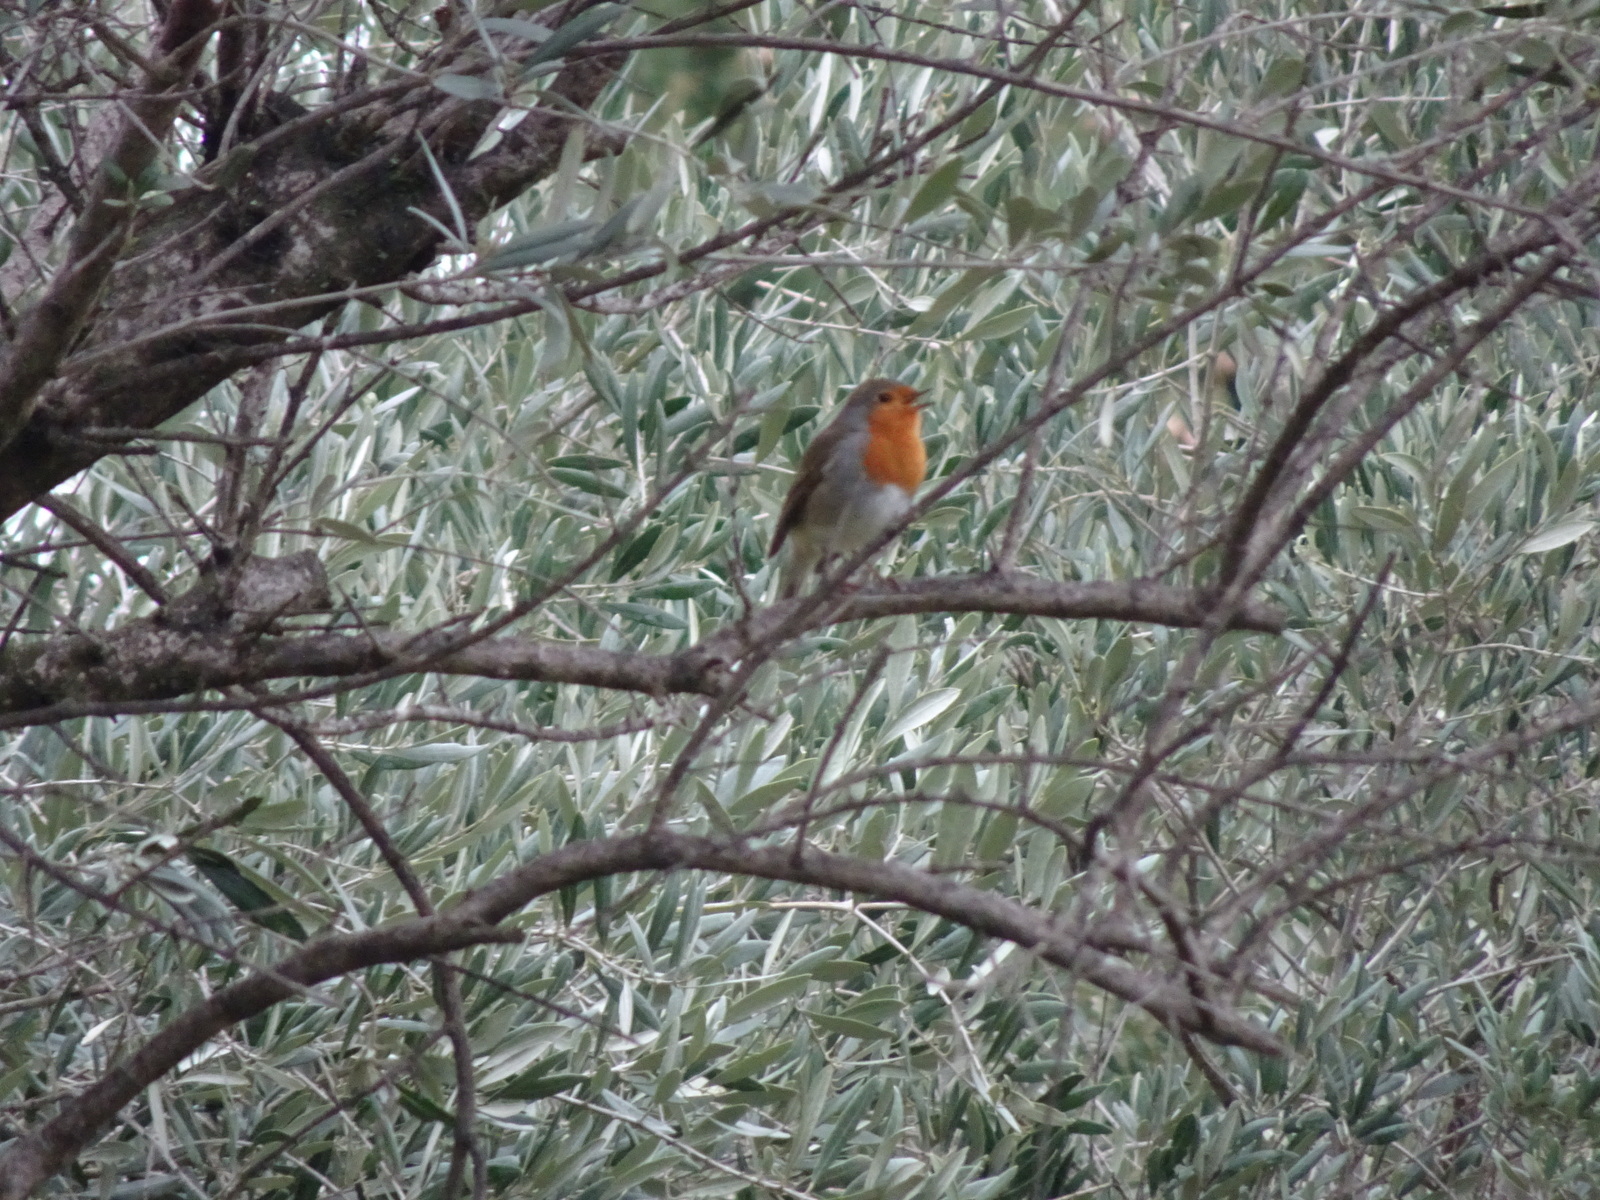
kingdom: Animalia
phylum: Chordata
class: Aves
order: Passeriformes
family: Muscicapidae
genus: Erithacus
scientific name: Erithacus rubecula
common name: European robin
